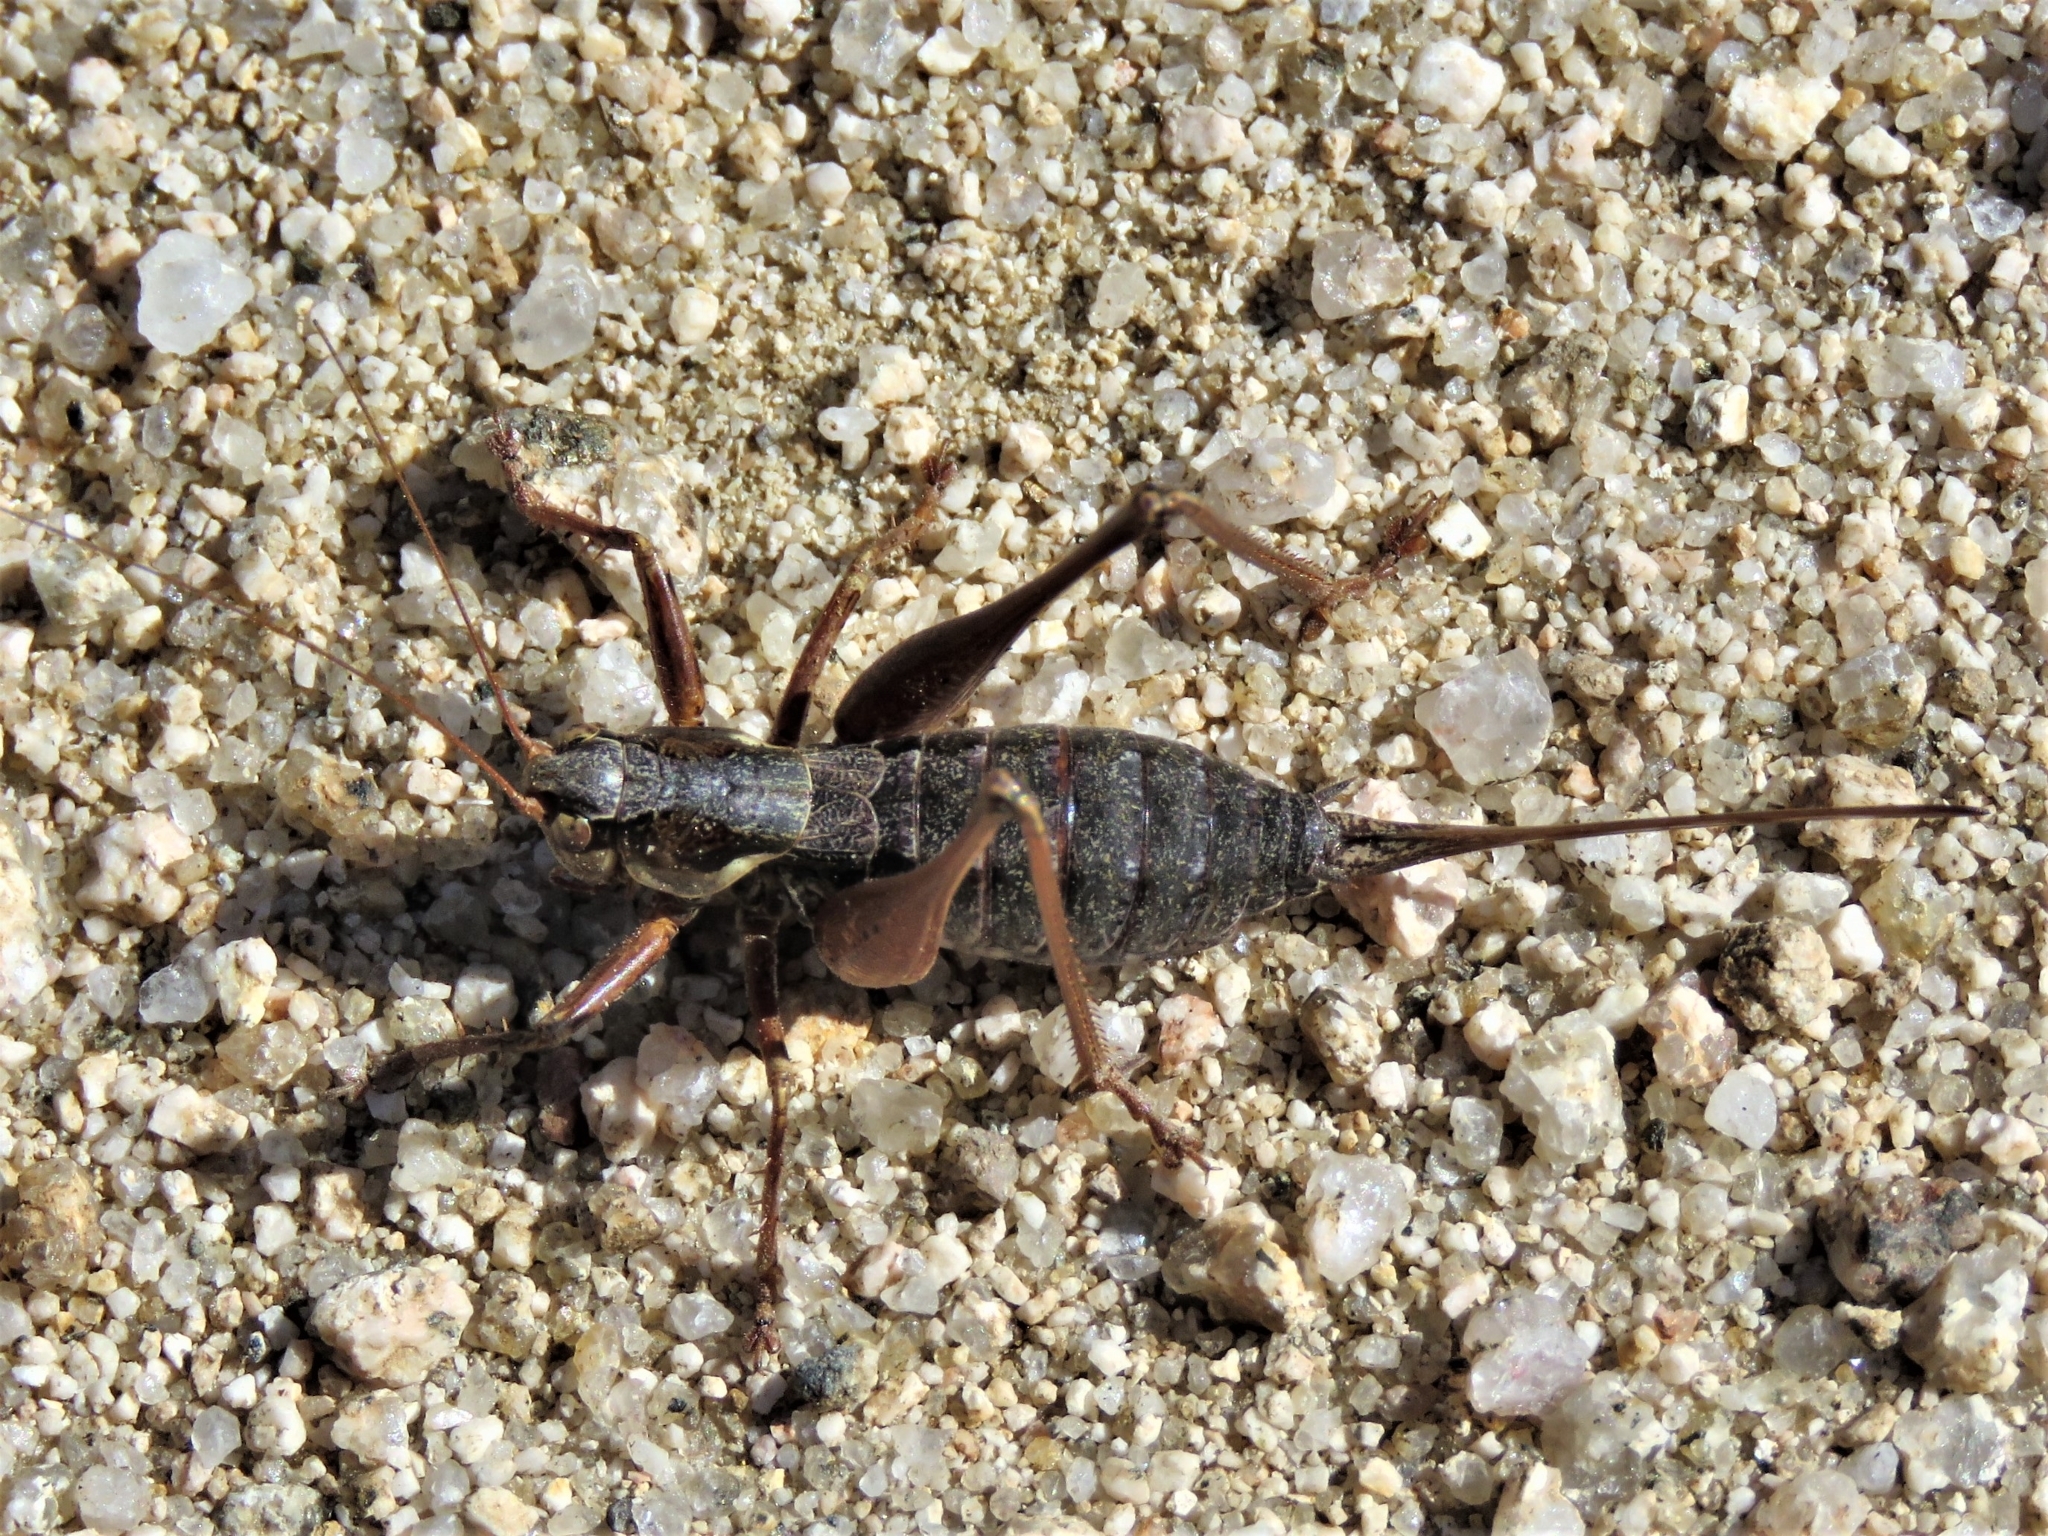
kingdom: Animalia
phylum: Arthropoda
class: Insecta
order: Orthoptera
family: Tettigoniidae
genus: Antaxius
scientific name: Antaxius spinibrachius
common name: Spiny-legged bush-cricket
